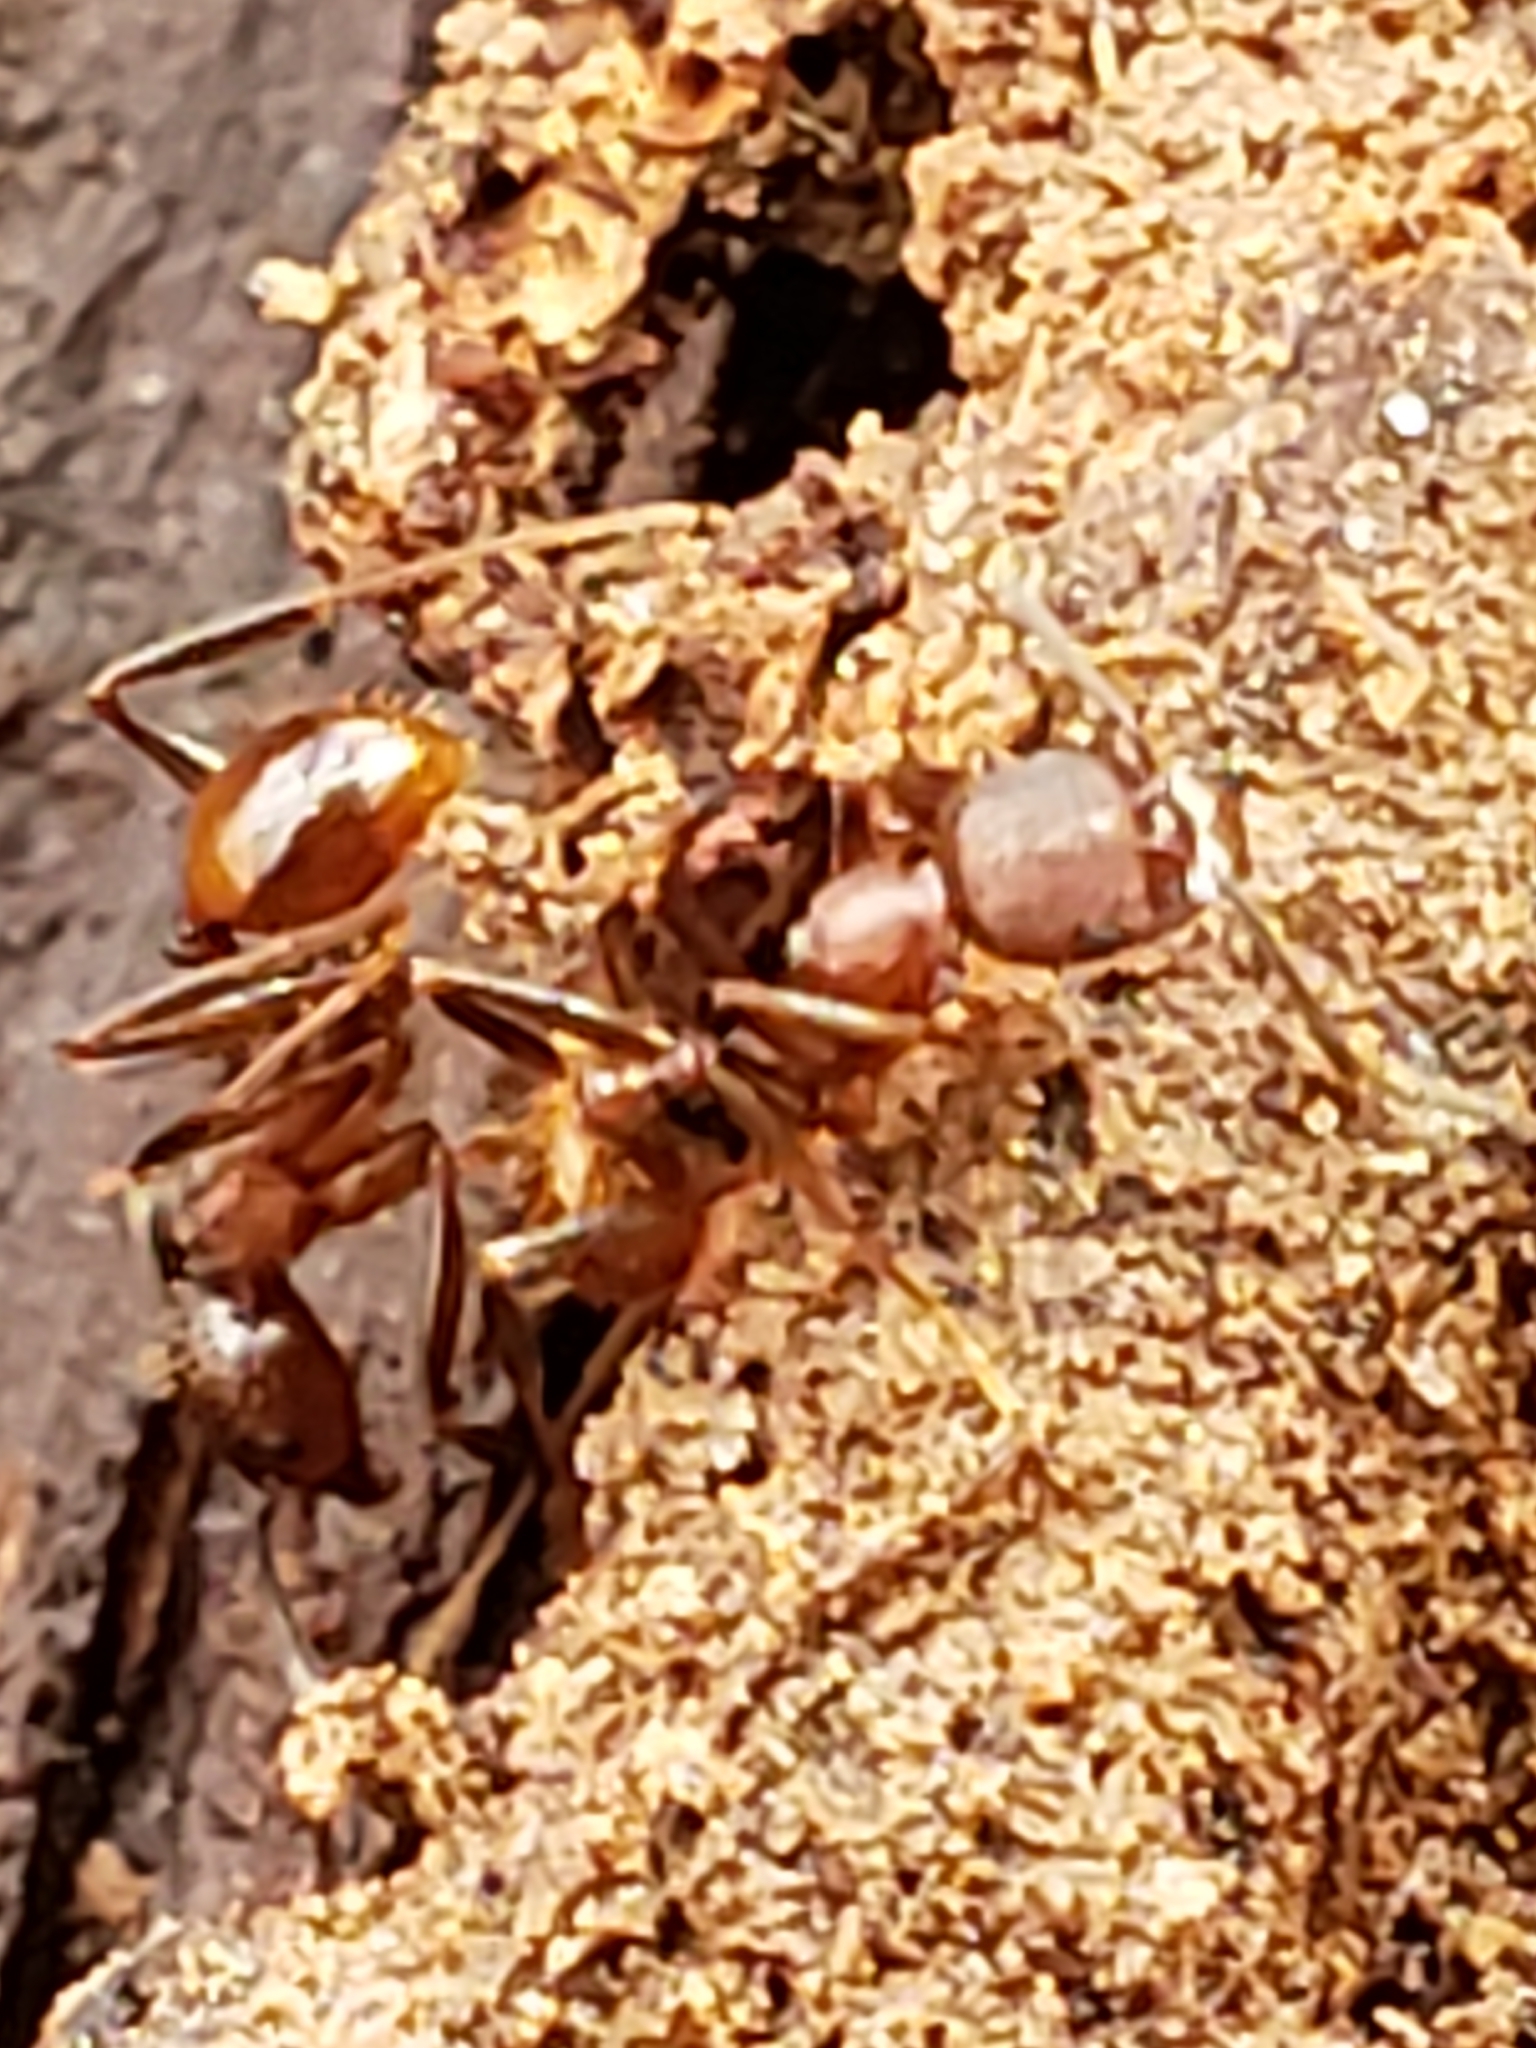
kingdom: Animalia
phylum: Arthropoda
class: Insecta
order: Hymenoptera
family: Formicidae
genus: Aphaenogaster
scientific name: Aphaenogaster fulva
